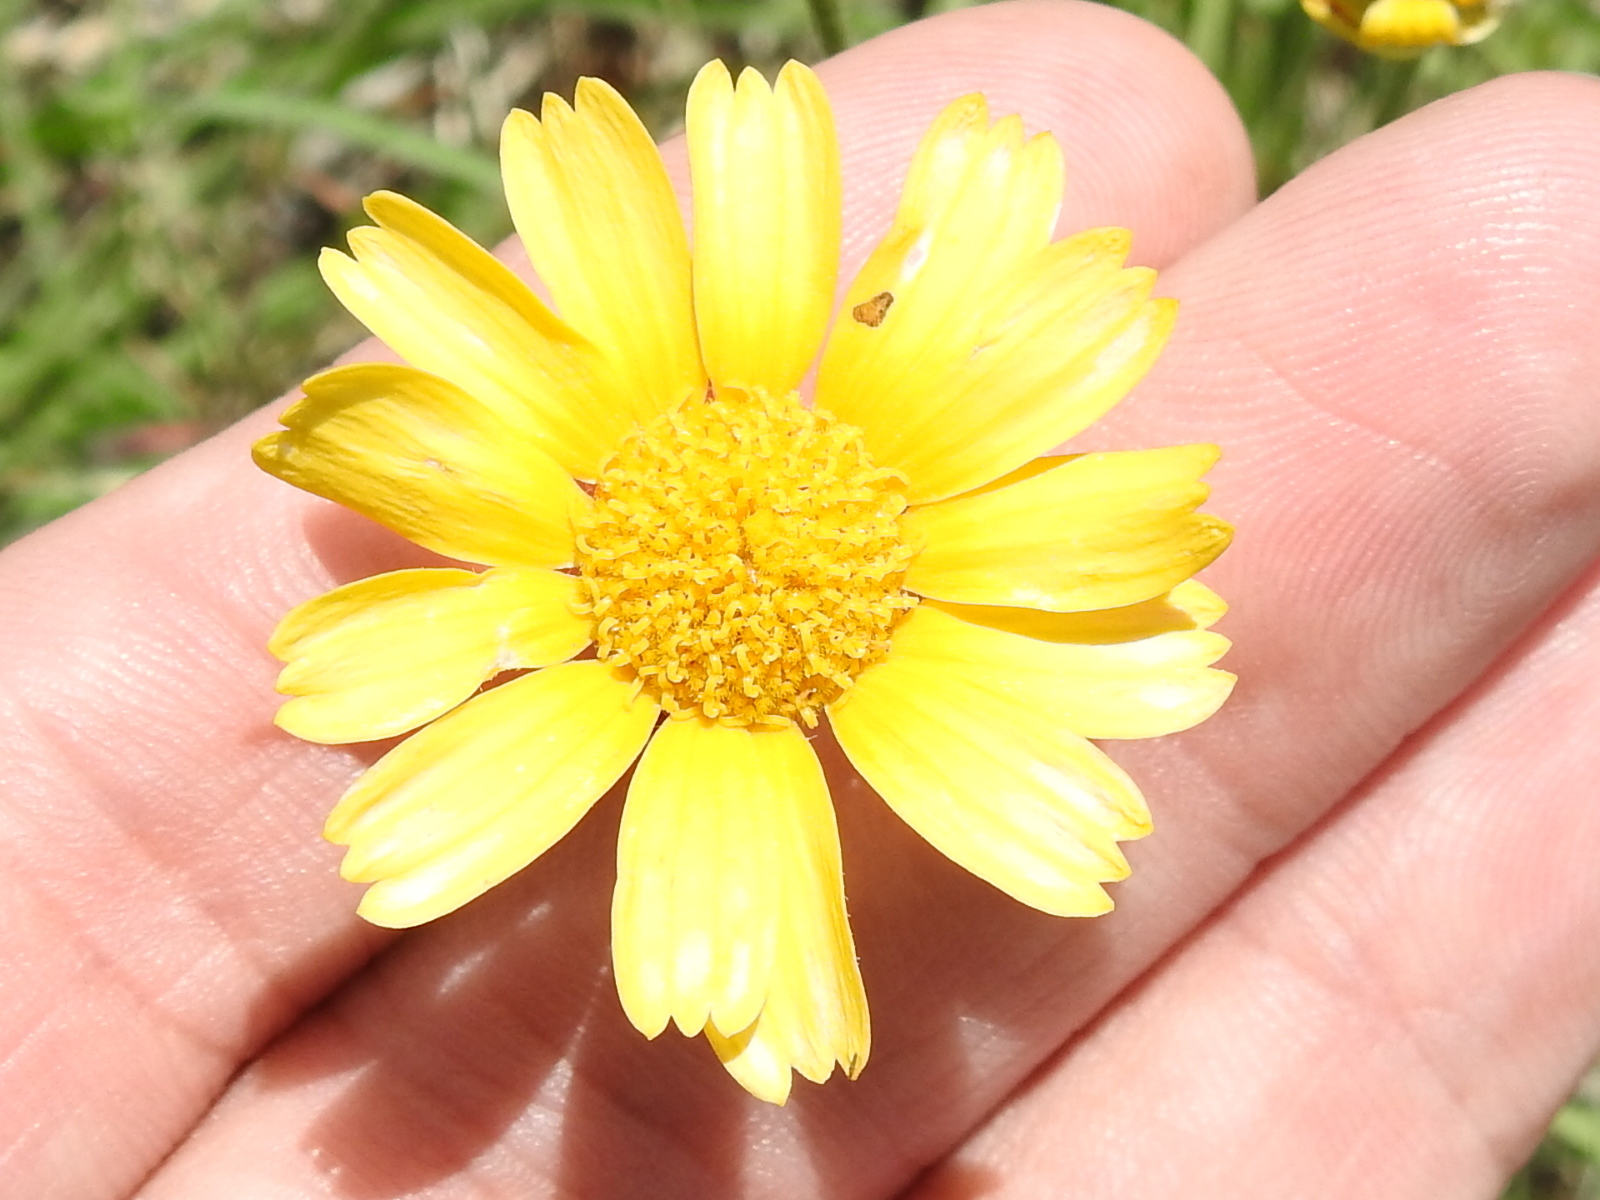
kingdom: Plantae
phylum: Tracheophyta
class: Magnoliopsida
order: Asterales
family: Asteraceae
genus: Tetraneuris
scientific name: Tetraneuris scaposa
